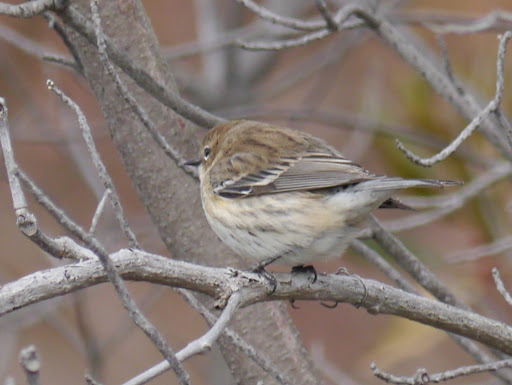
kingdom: Animalia
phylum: Chordata
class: Aves
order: Passeriformes
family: Parulidae
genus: Setophaga
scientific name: Setophaga coronata
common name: Myrtle warbler
